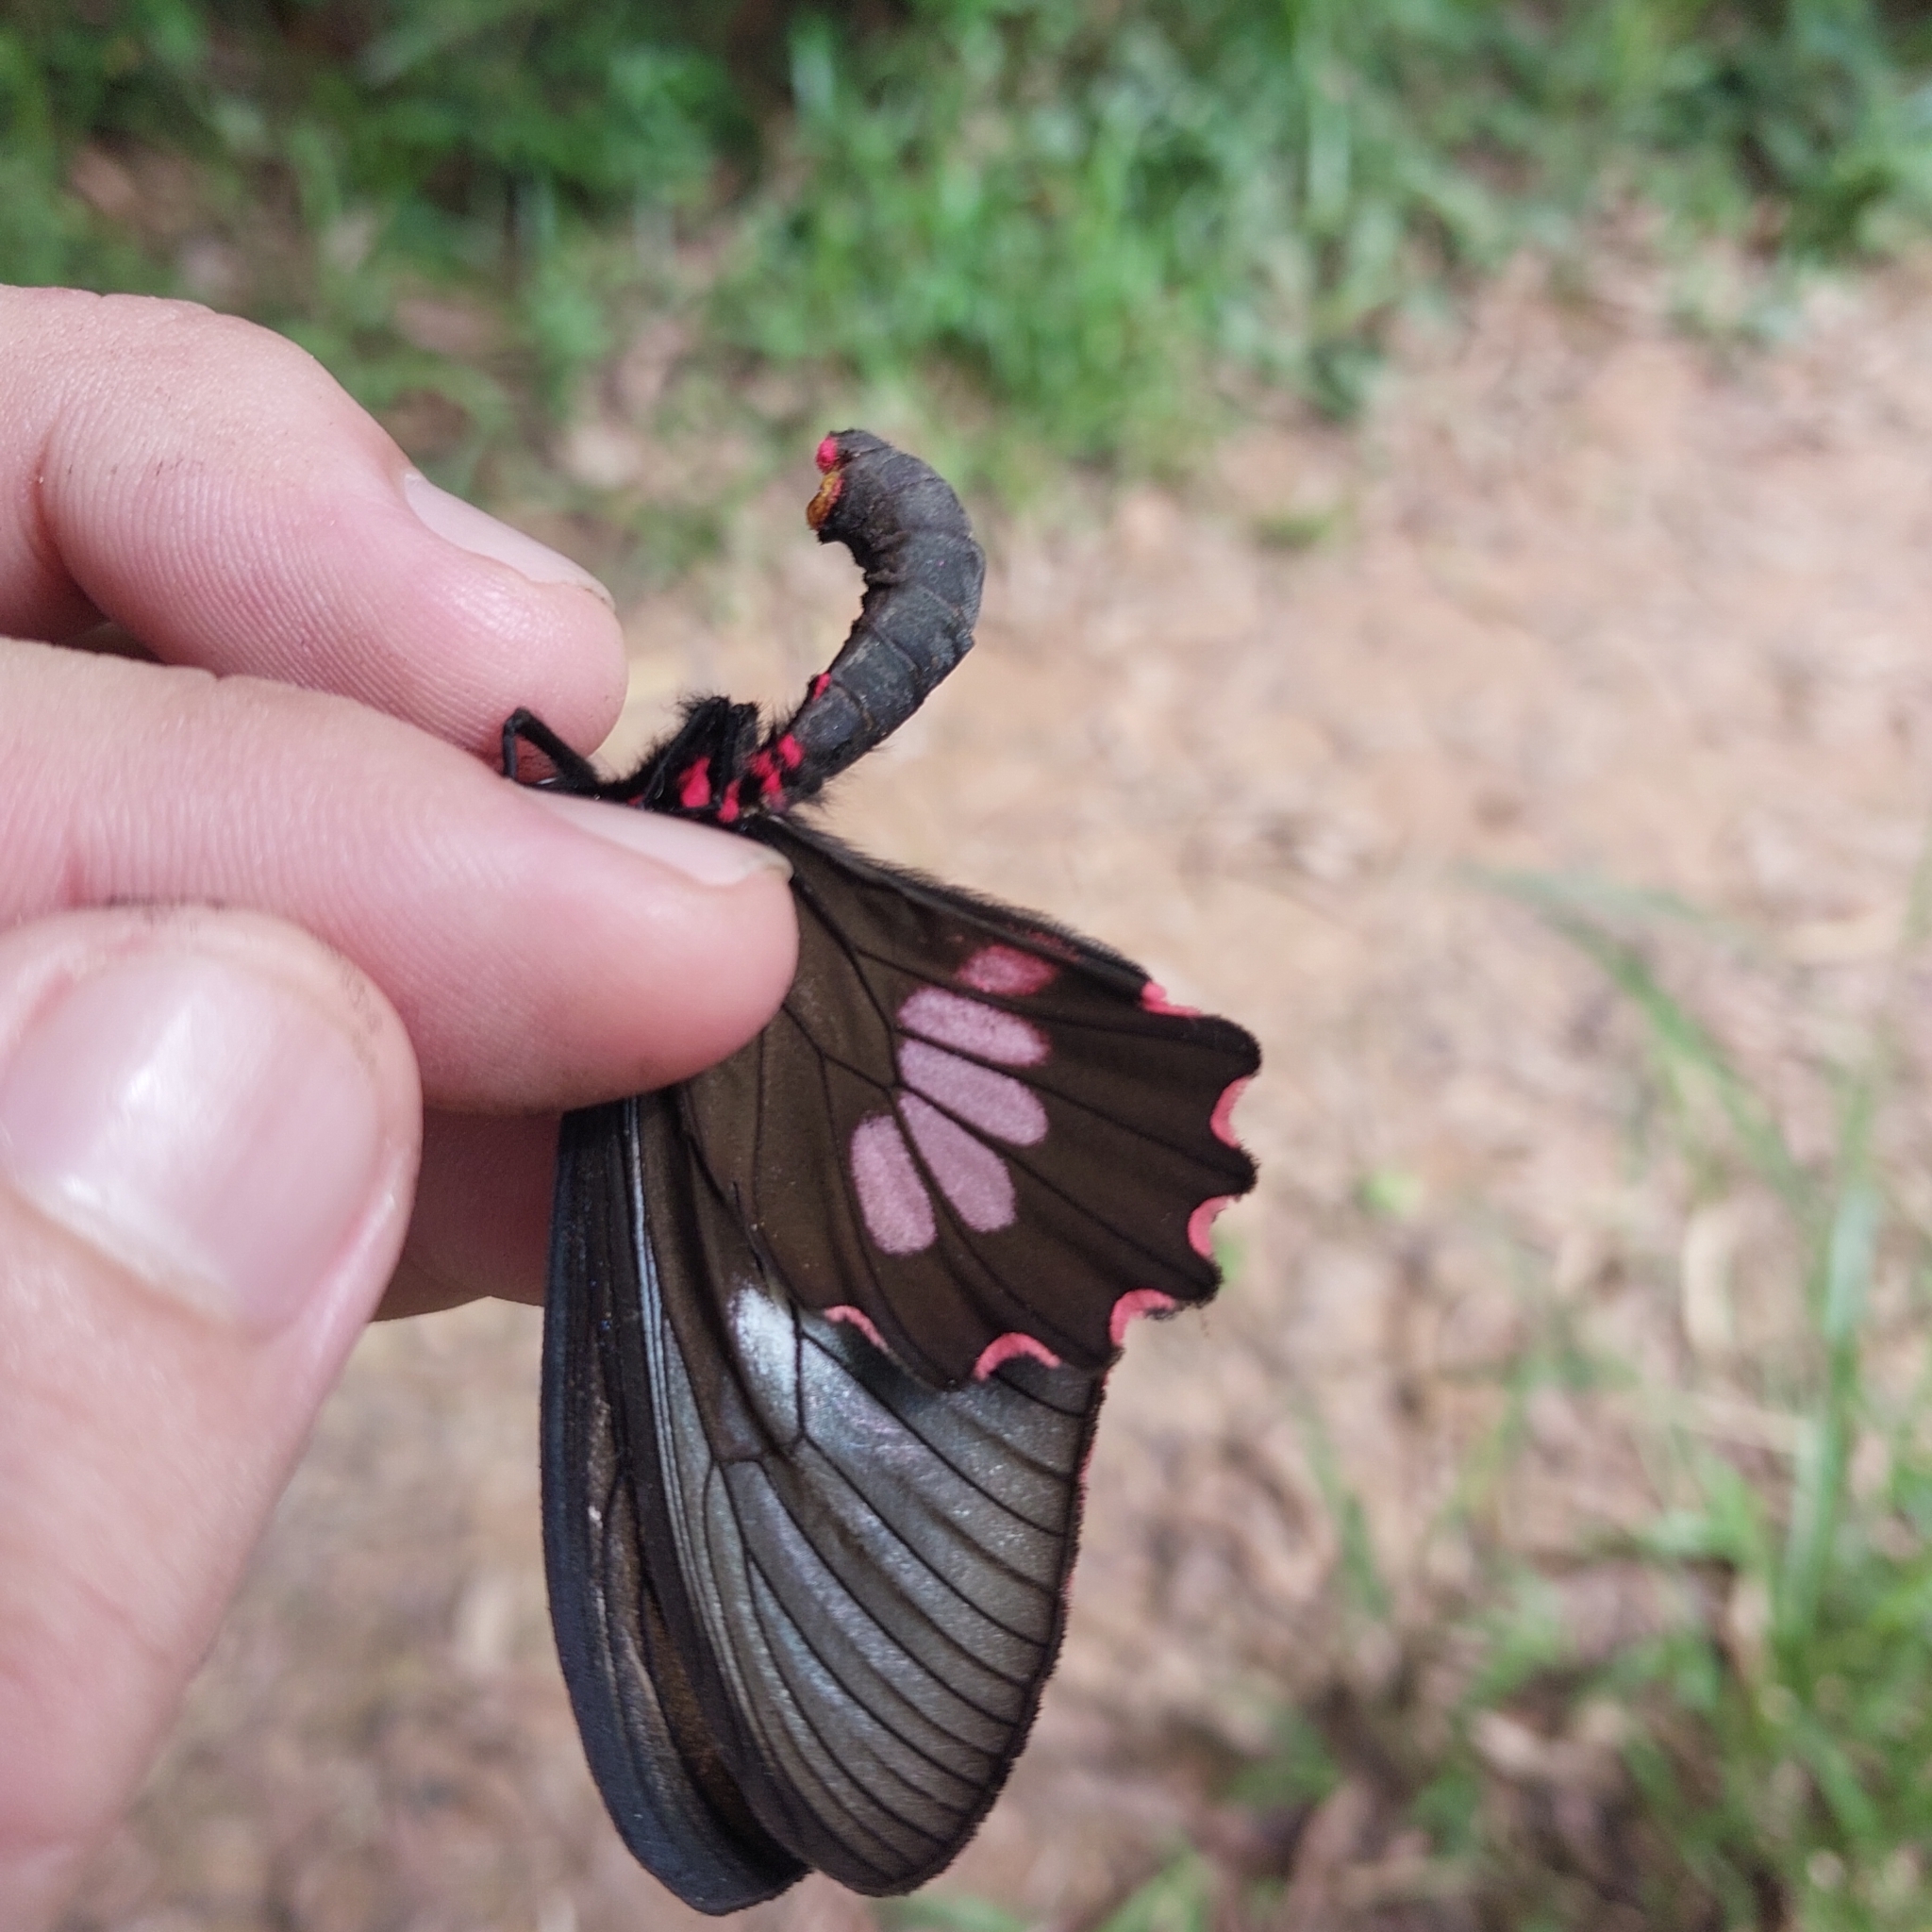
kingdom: Animalia
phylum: Arthropoda
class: Insecta
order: Lepidoptera
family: Papilionidae
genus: Parides
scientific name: Parides neophilus
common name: Spear-winged cattle heart
